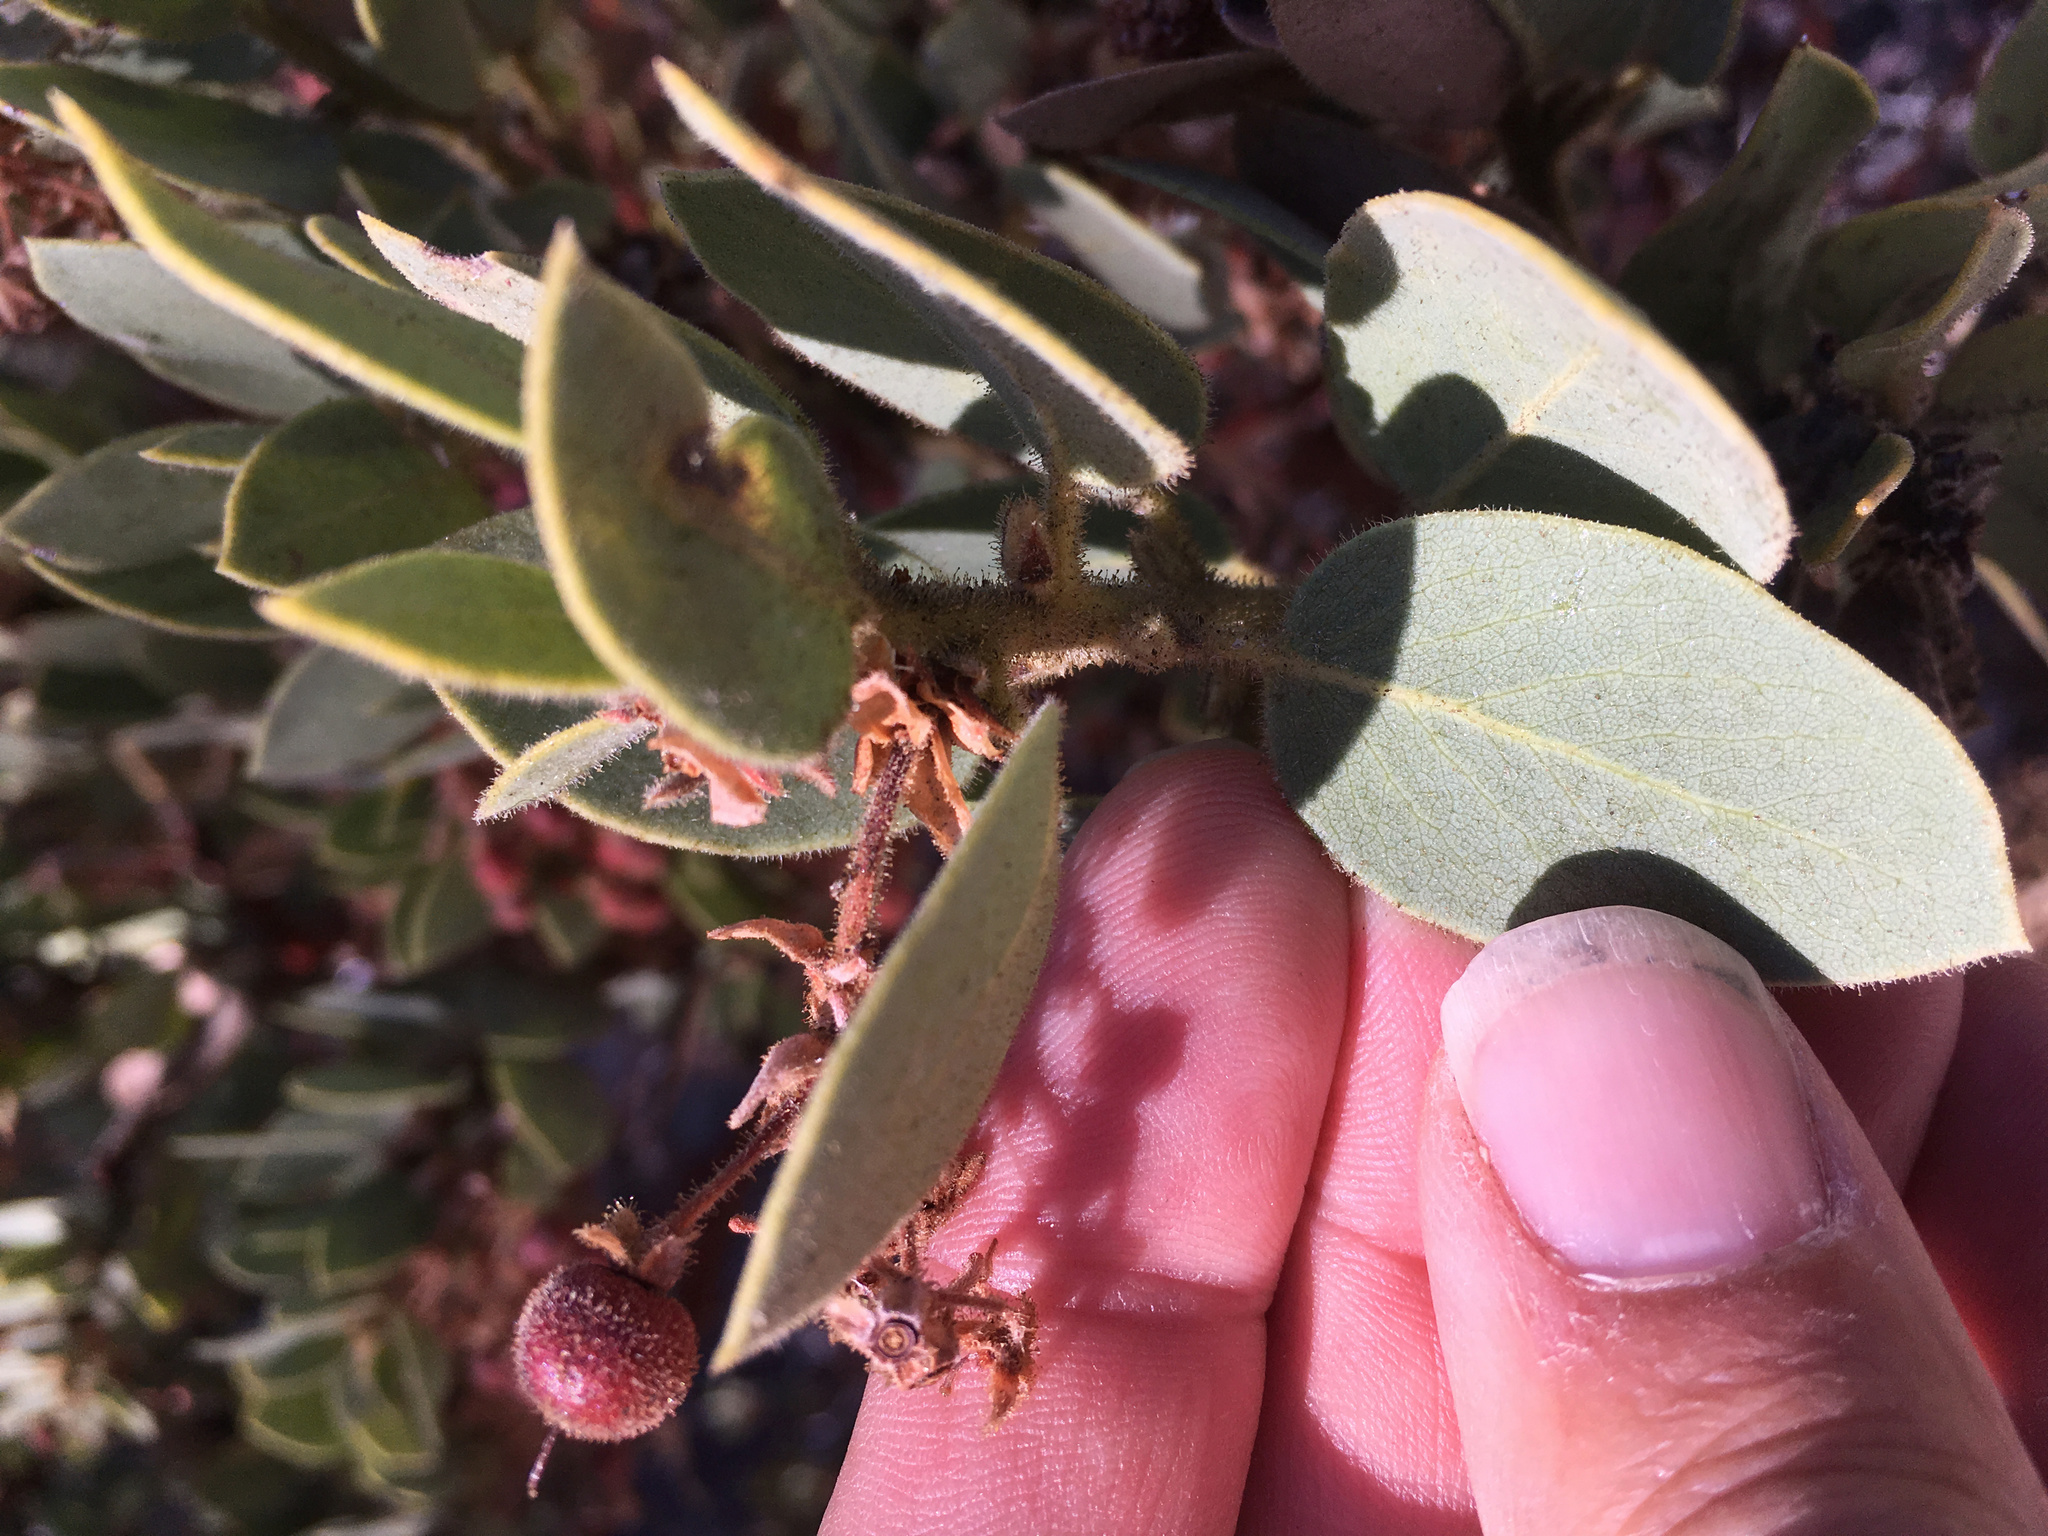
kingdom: Plantae
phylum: Tracheophyta
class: Magnoliopsida
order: Ericales
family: Ericaceae
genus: Arctostaphylos
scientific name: Arctostaphylos pringlei
